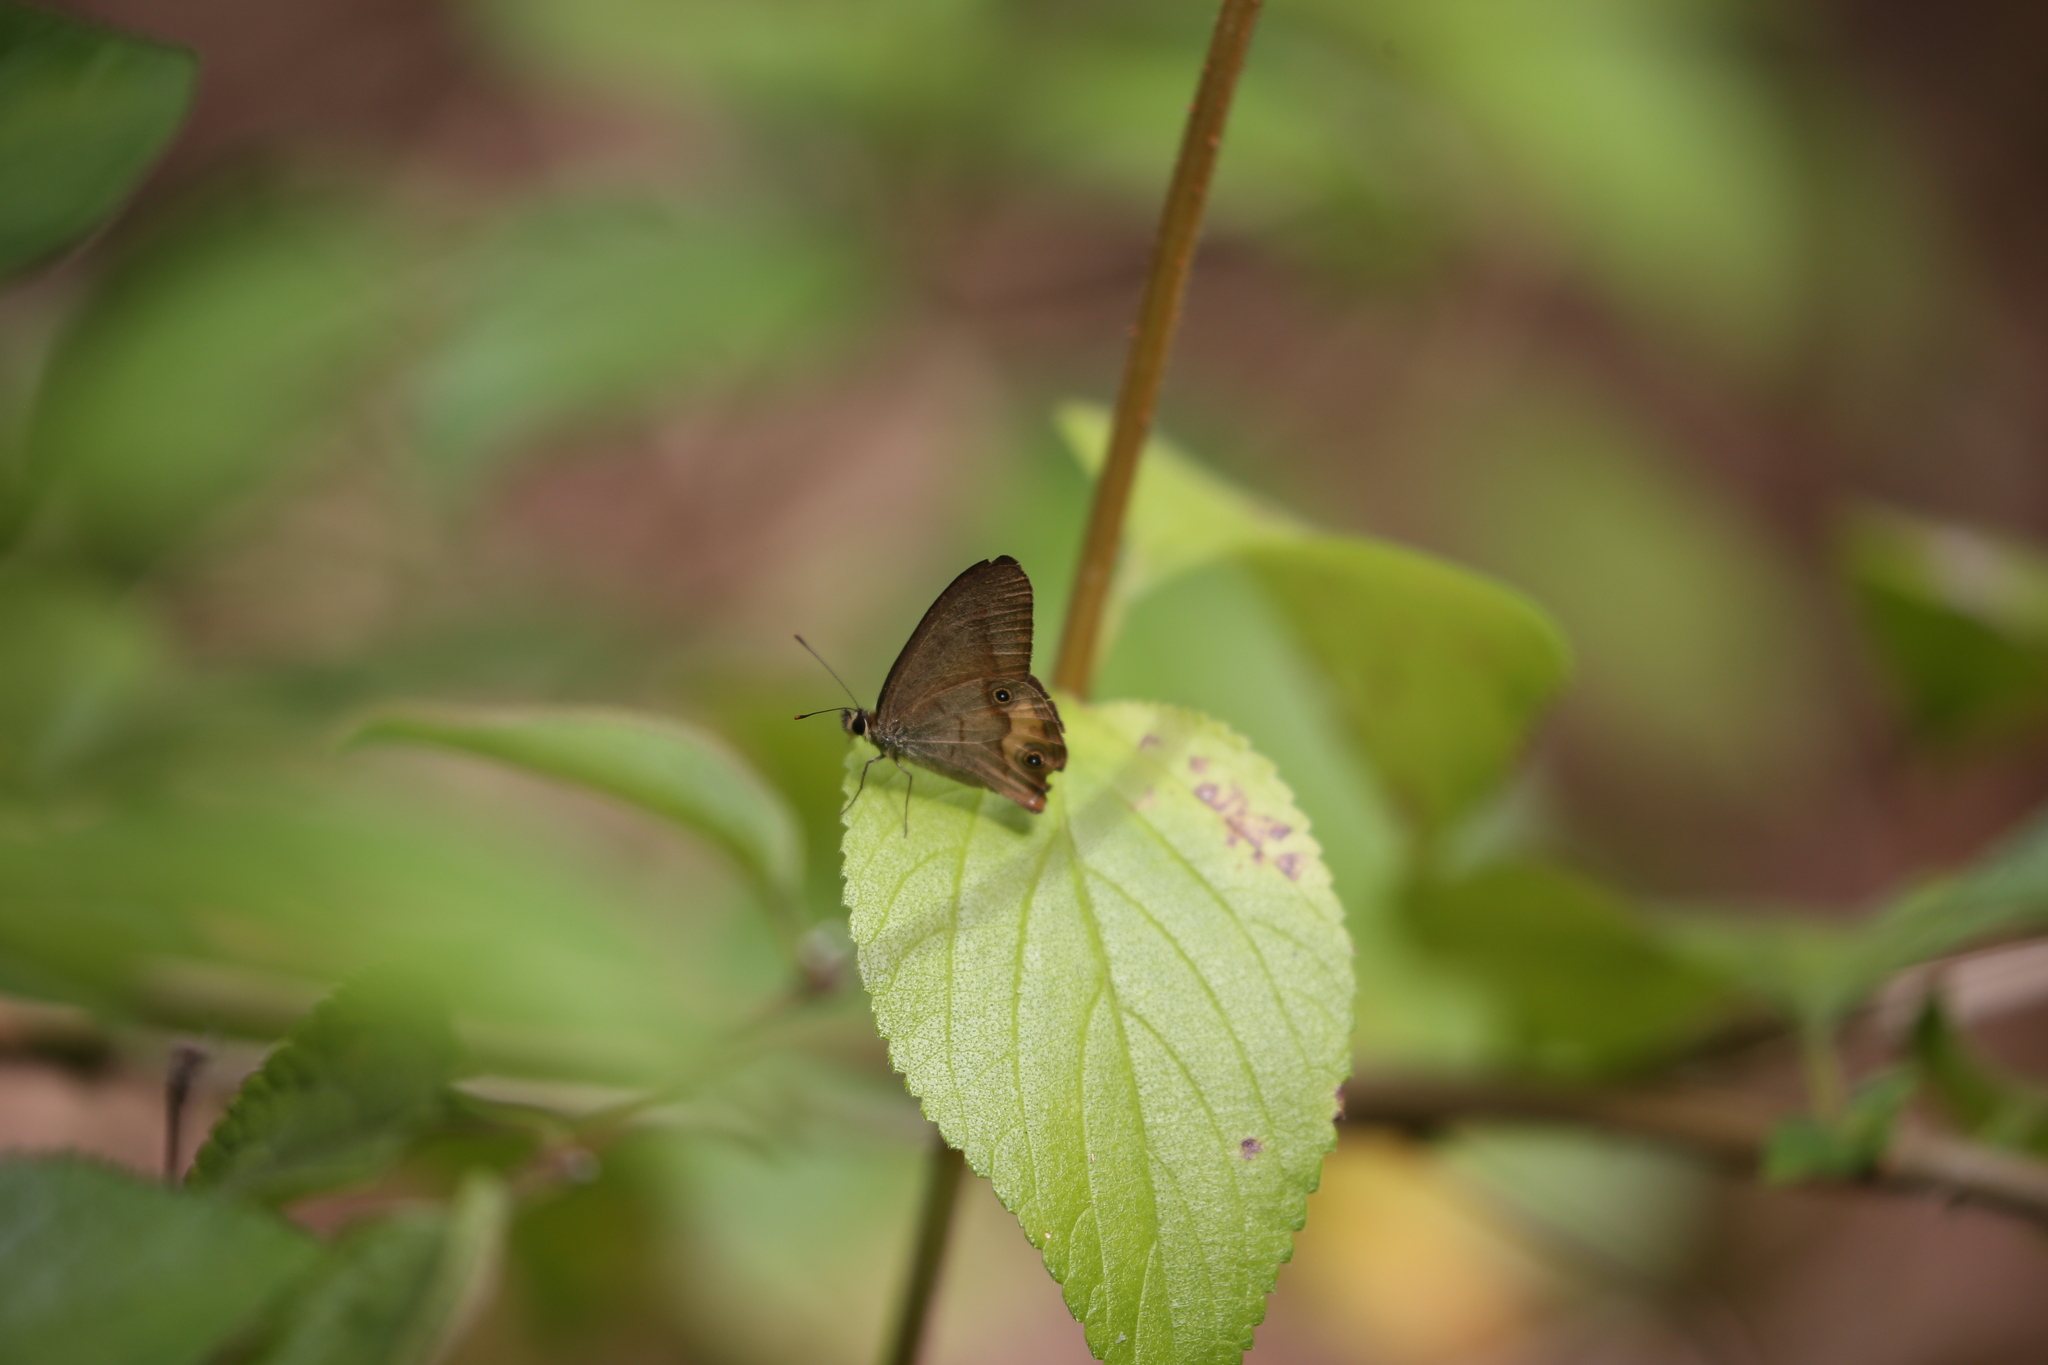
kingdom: Animalia
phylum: Arthropoda
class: Insecta
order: Lepidoptera
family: Nymphalidae
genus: Hypocysta
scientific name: Hypocysta metirius
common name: Brown ringlet
